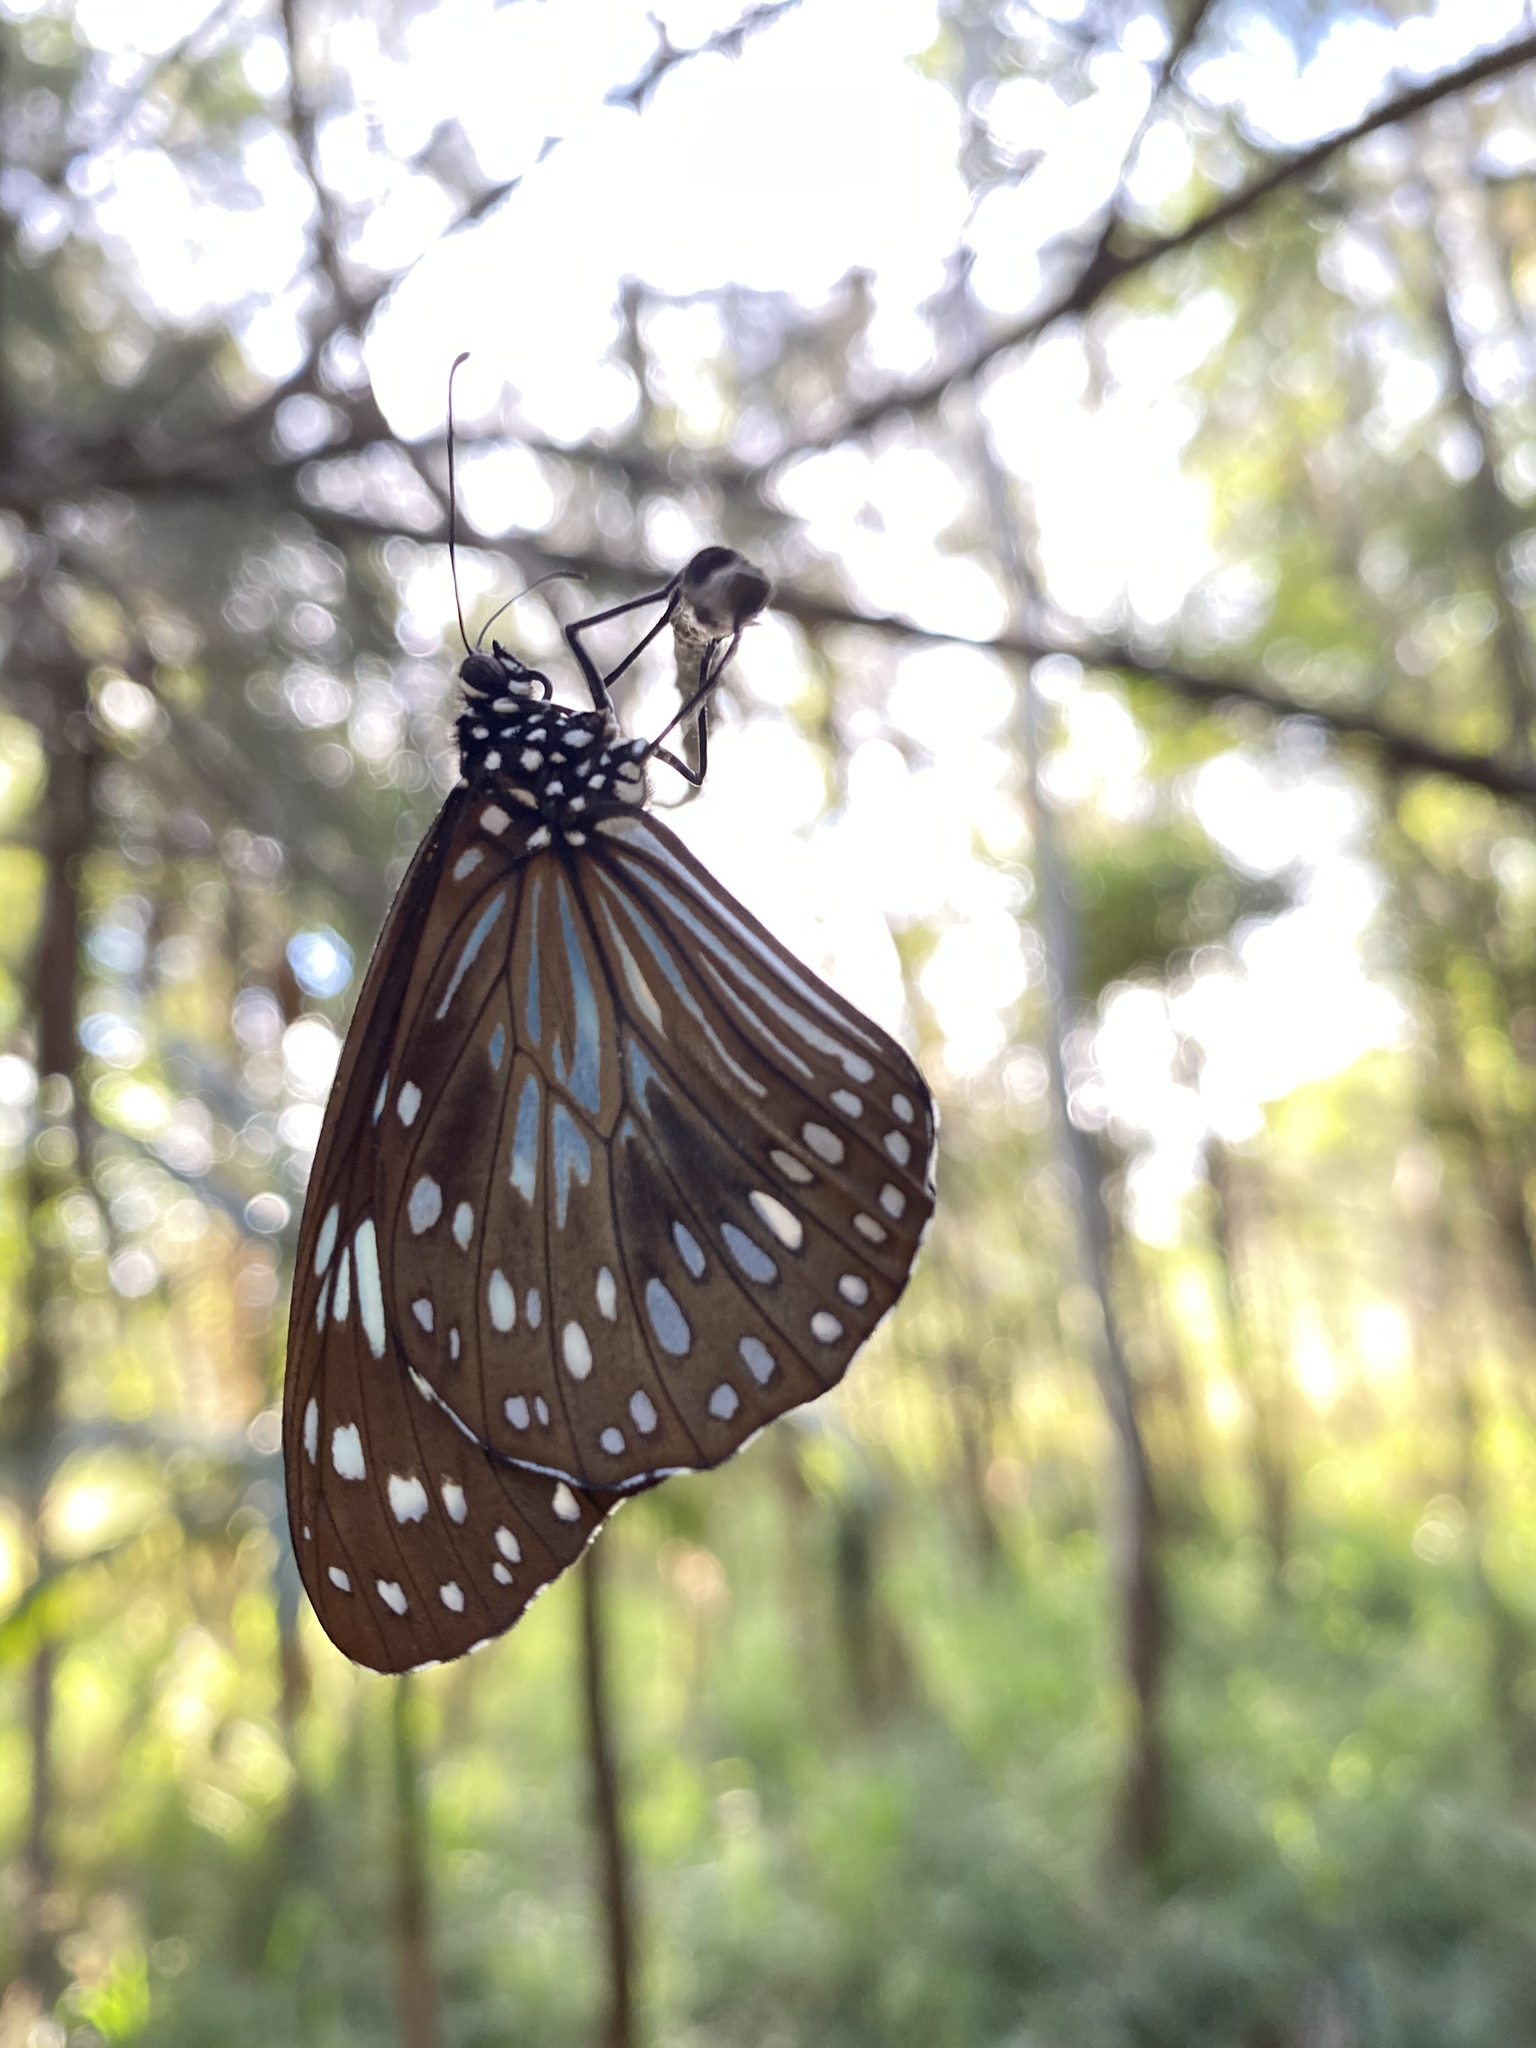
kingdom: Animalia
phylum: Arthropoda
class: Insecta
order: Lepidoptera
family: Nymphalidae
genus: Tirumala
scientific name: Tirumala hamata
